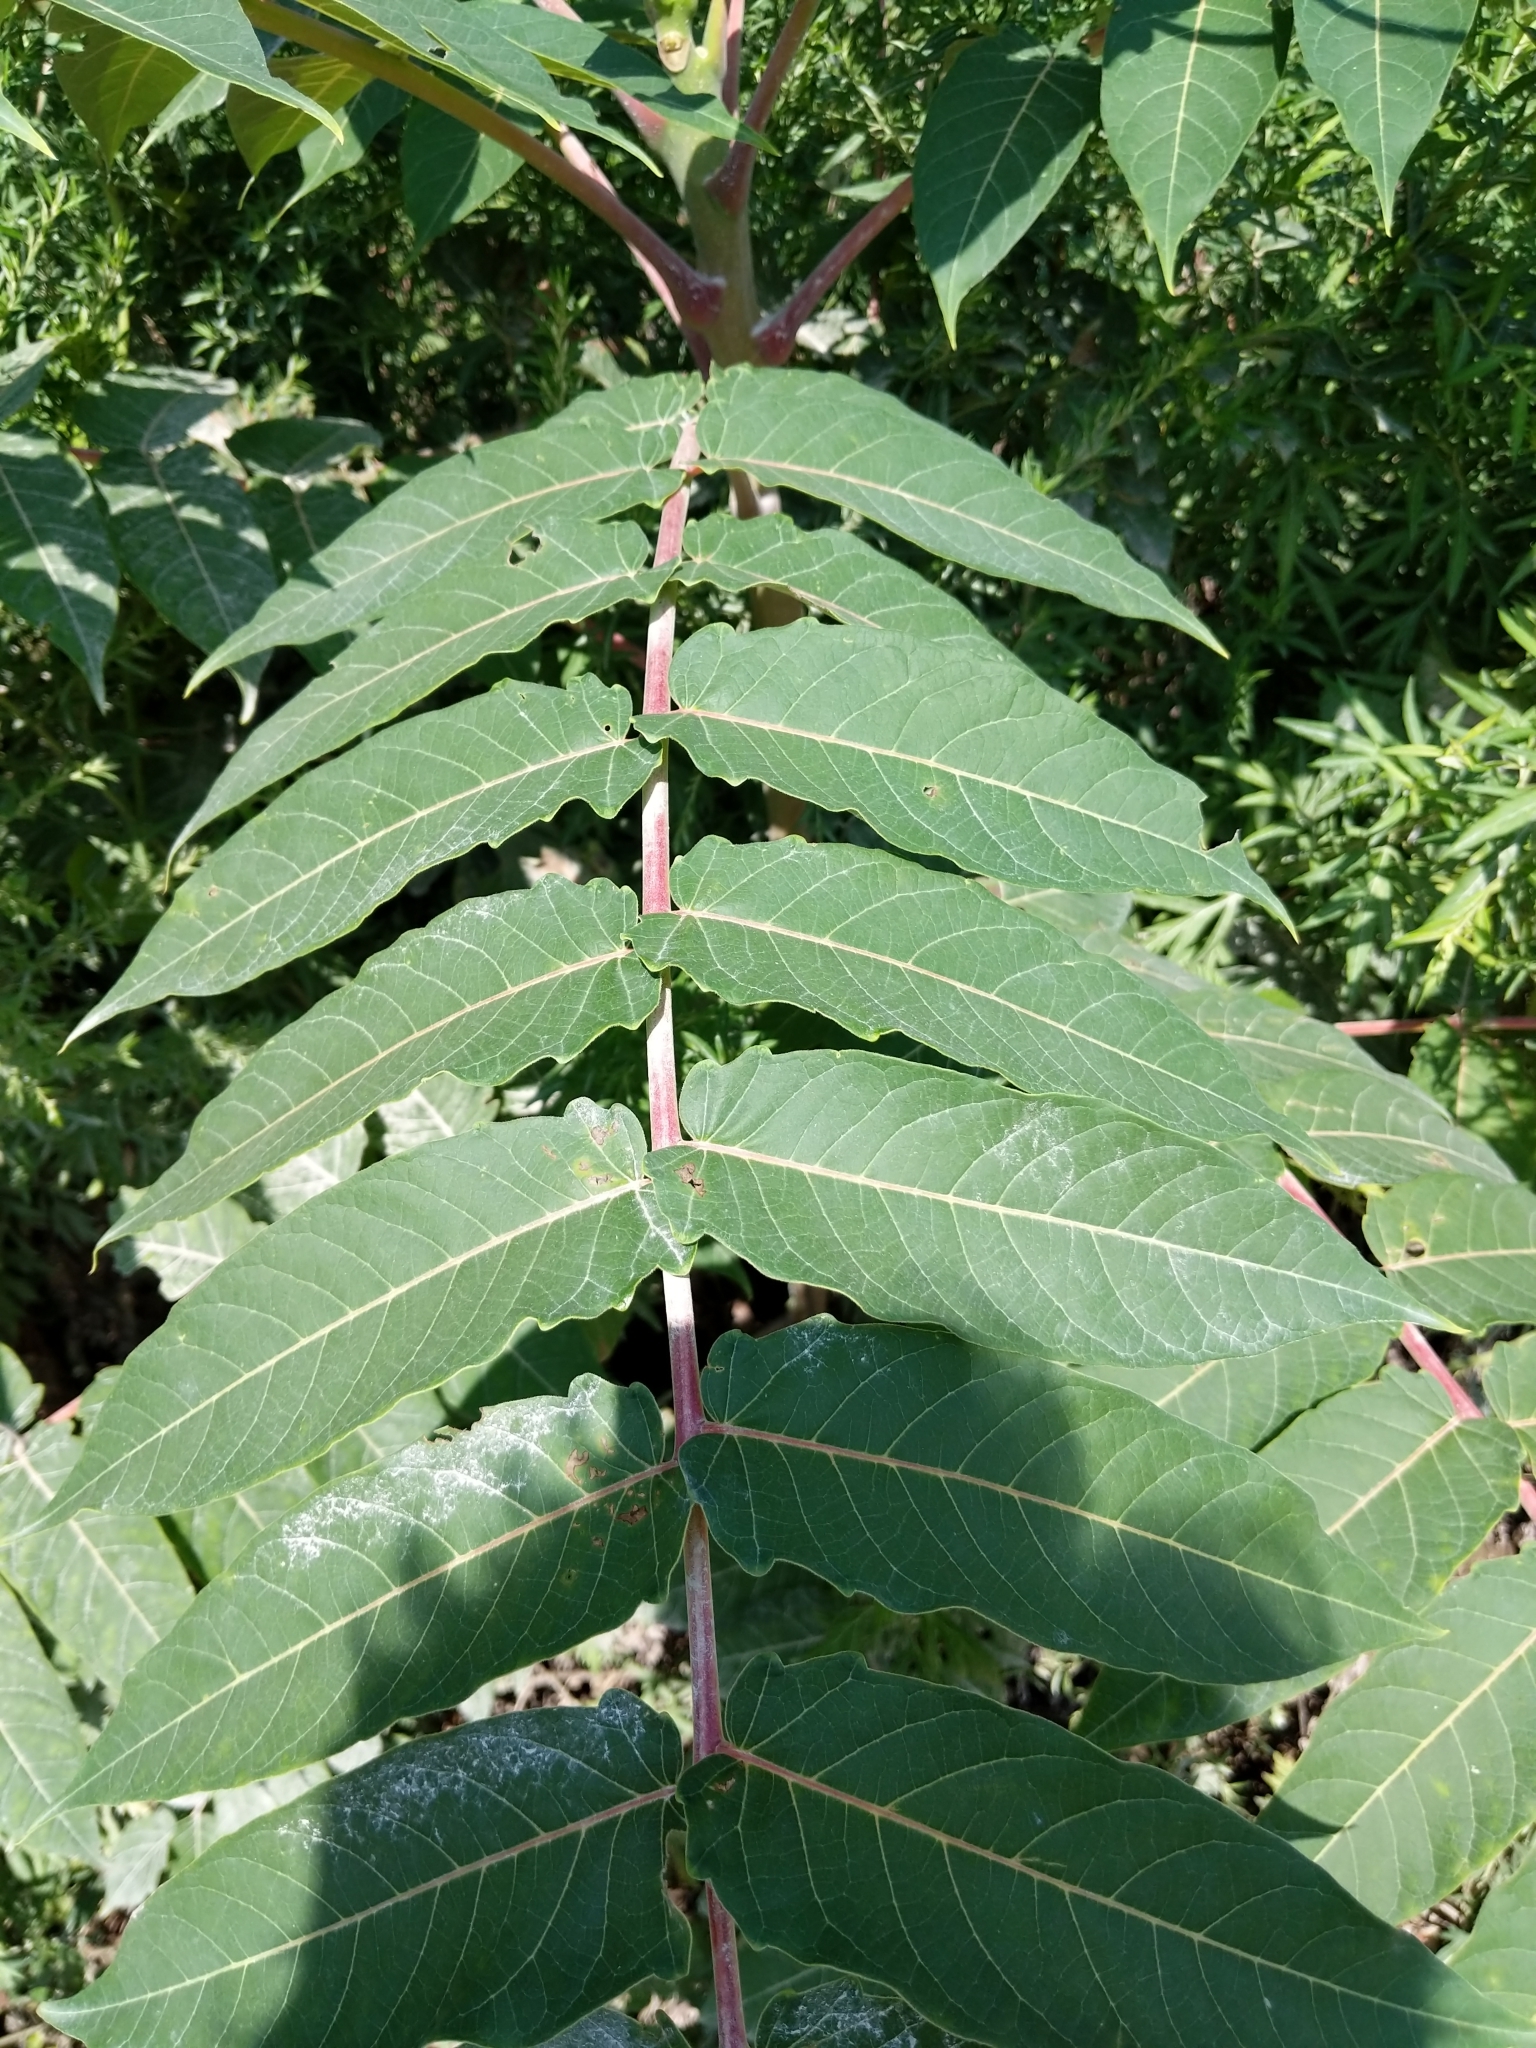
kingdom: Plantae
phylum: Tracheophyta
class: Magnoliopsida
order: Sapindales
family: Simaroubaceae
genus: Ailanthus
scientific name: Ailanthus altissima
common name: Tree-of-heaven
